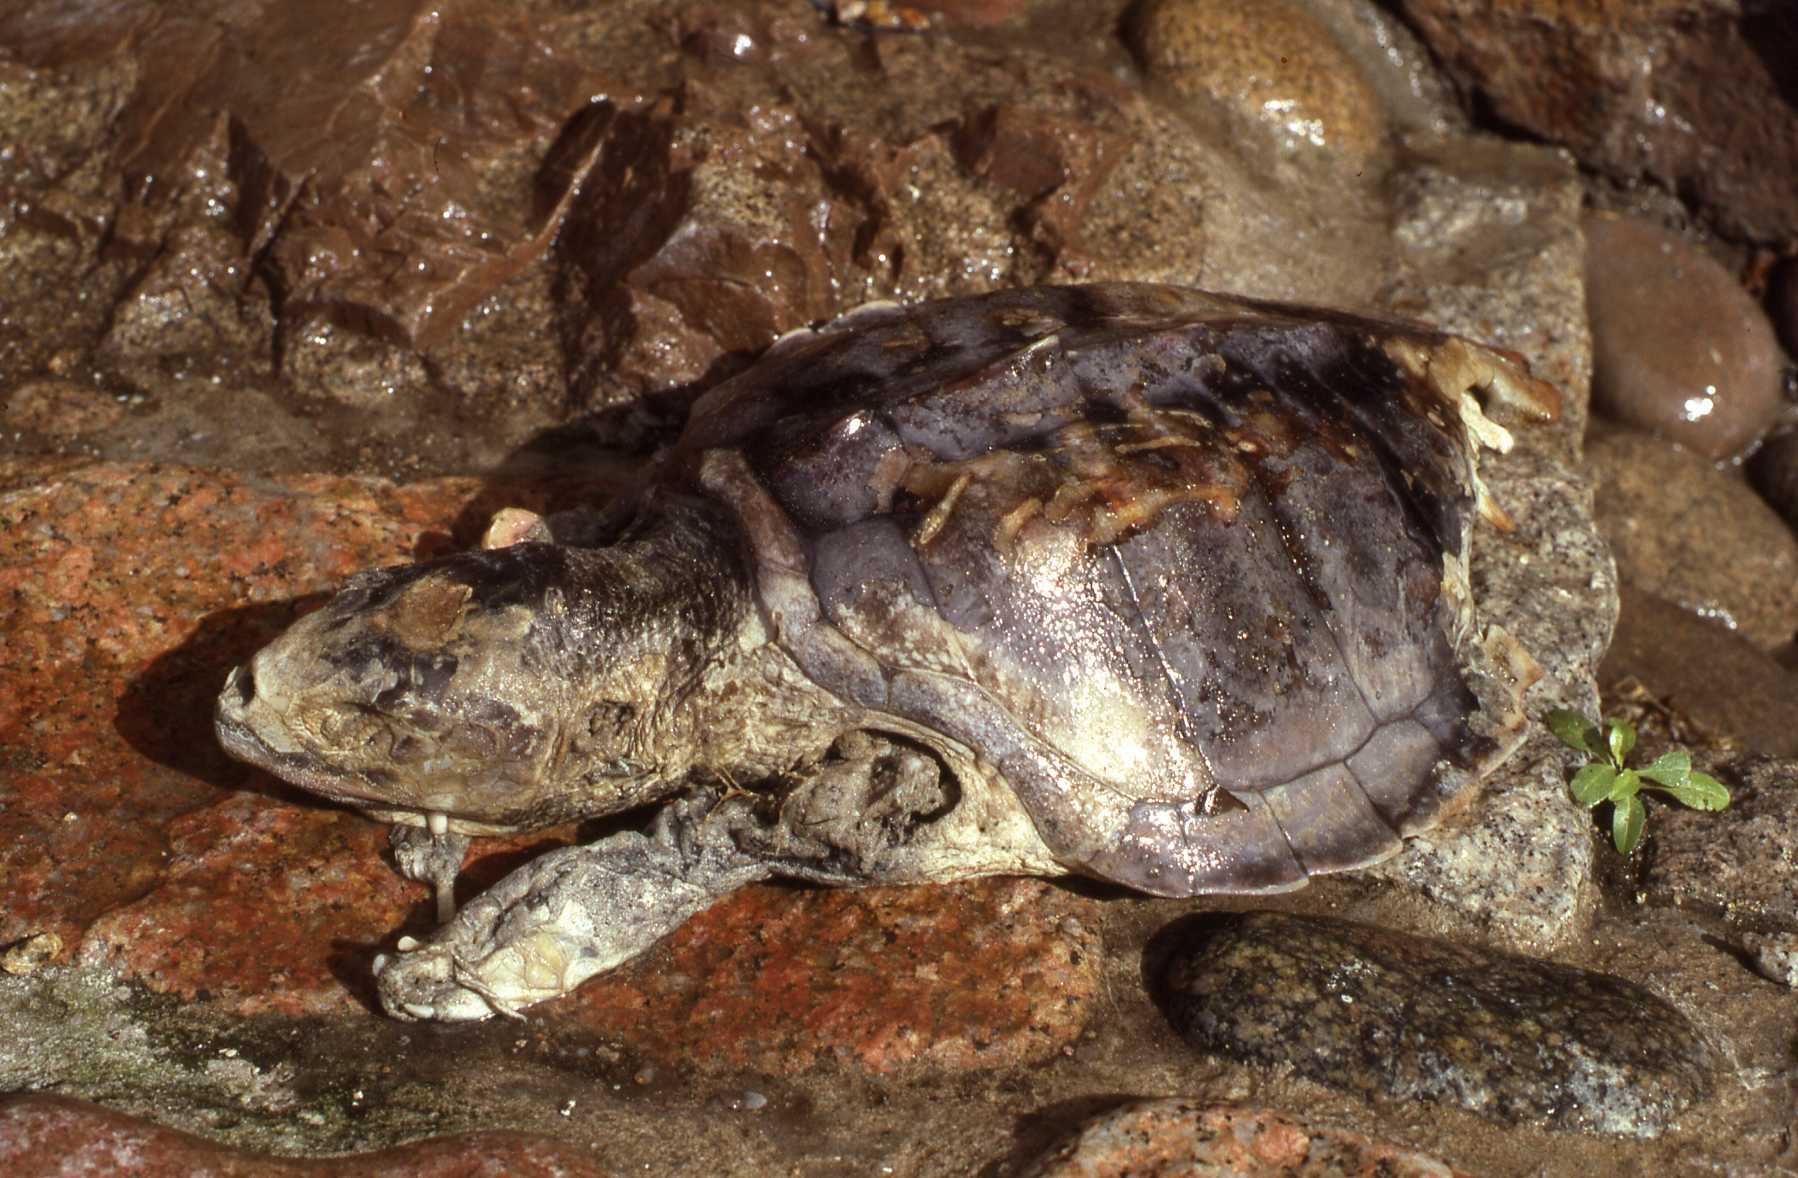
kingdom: Animalia
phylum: Chordata
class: Testudines
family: Cheloniidae
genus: Lepidochelys
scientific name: Lepidochelys kempii
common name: Kemp's ridley turtle
